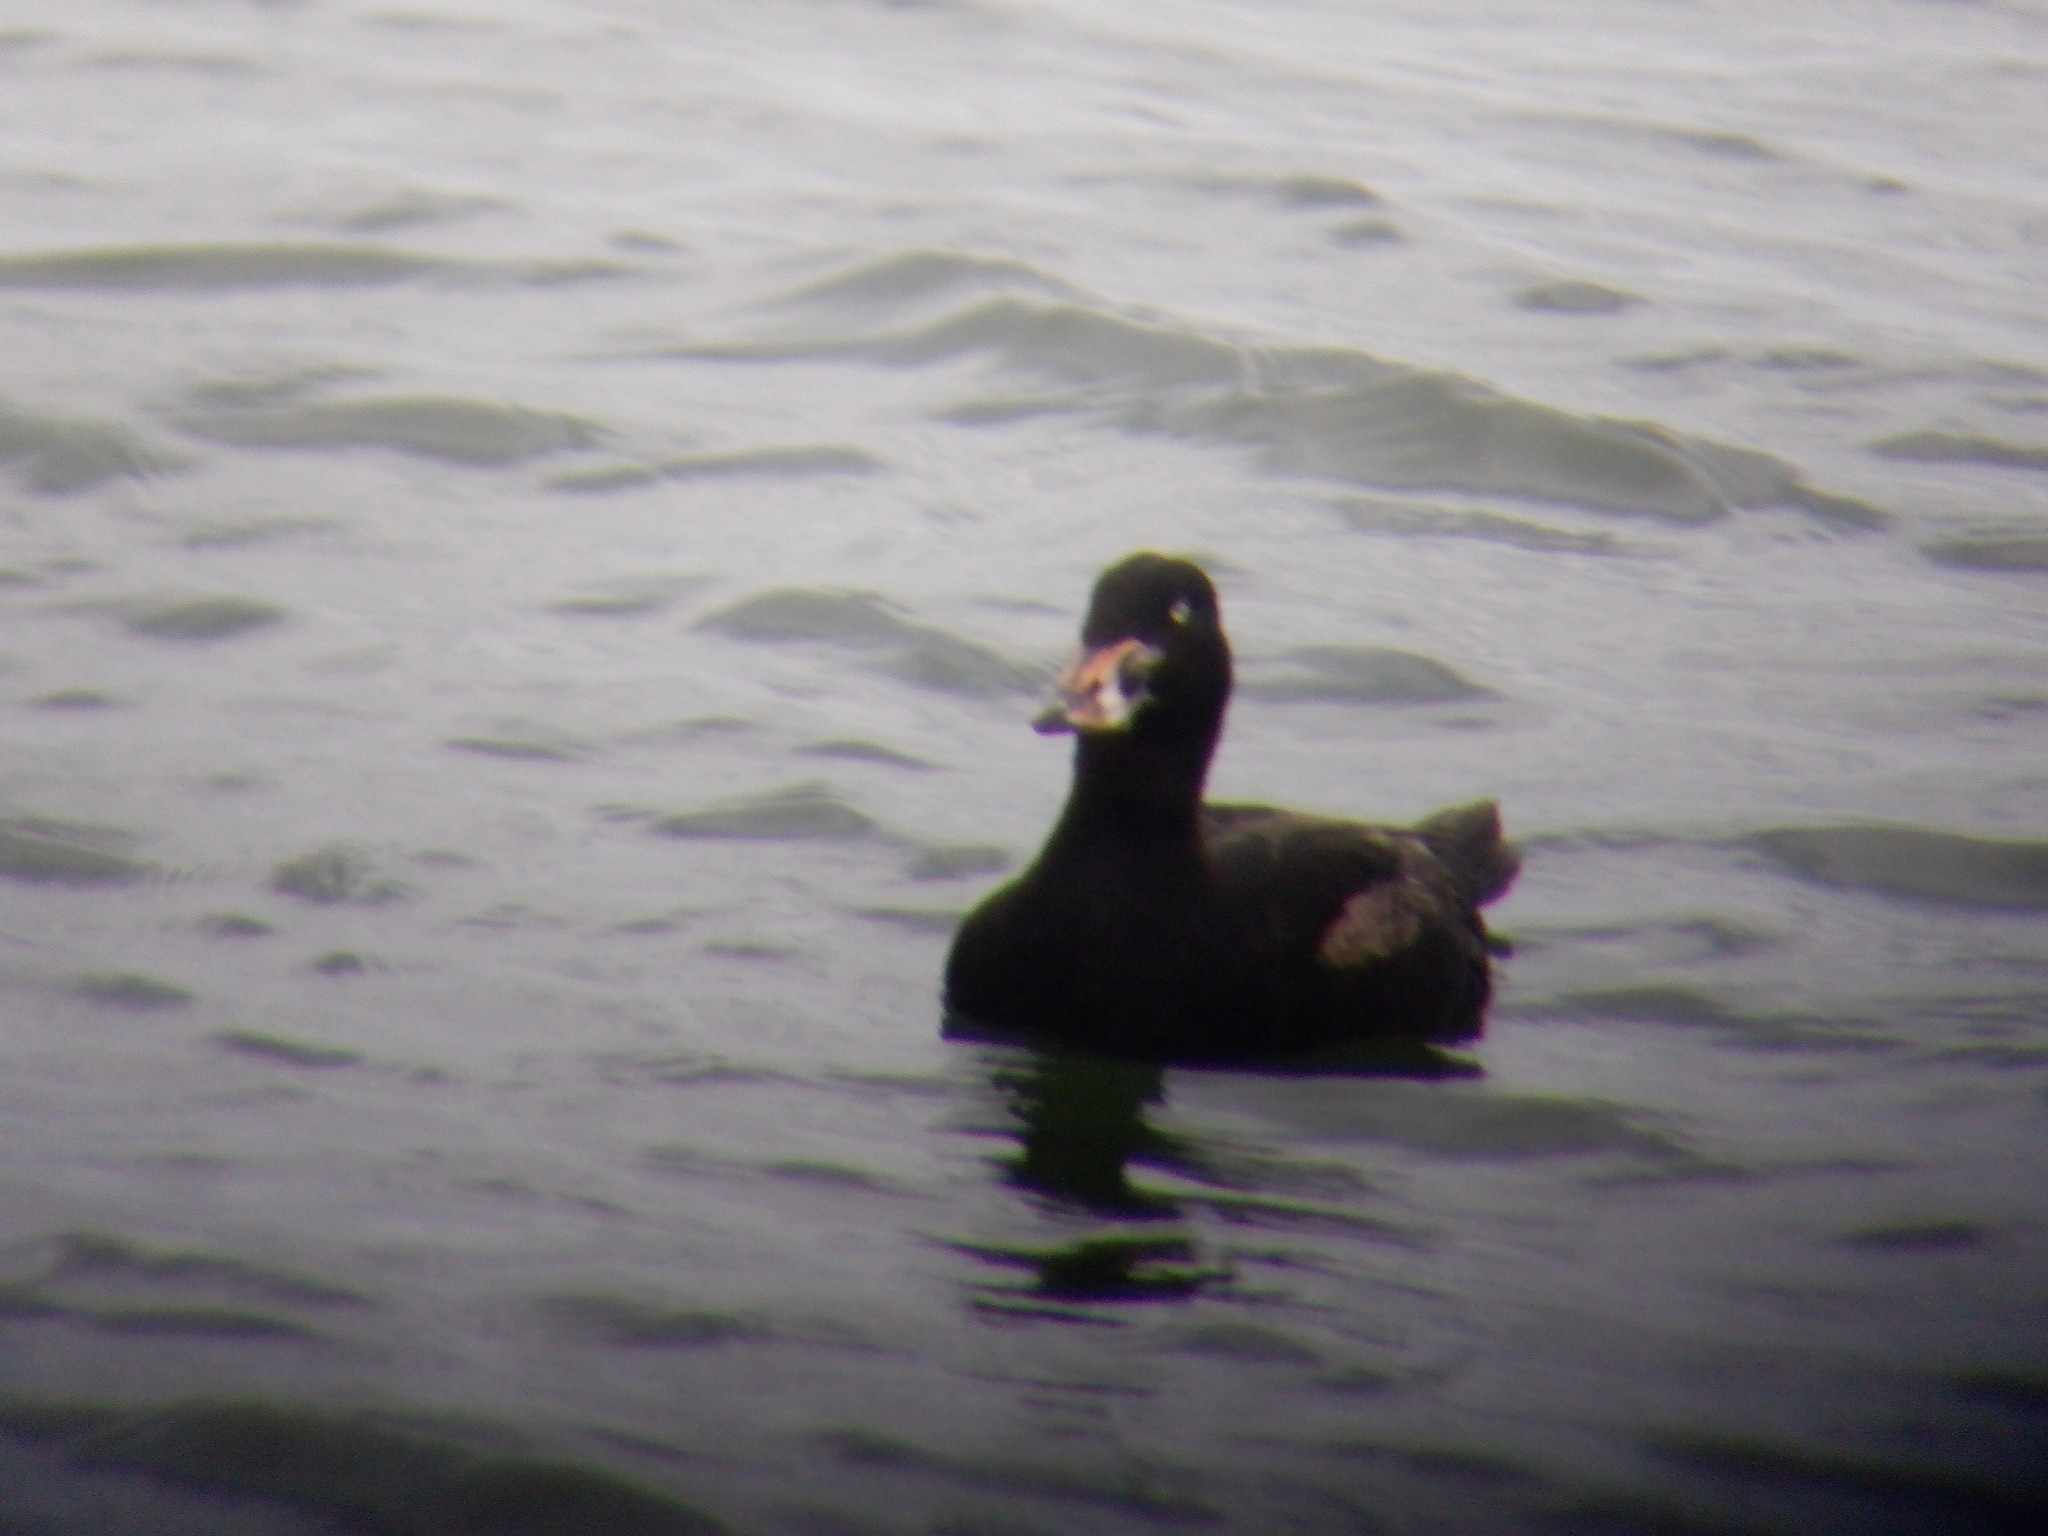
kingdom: Animalia
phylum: Chordata
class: Aves
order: Anseriformes
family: Anatidae
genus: Melanitta
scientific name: Melanitta perspicillata
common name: Surf scoter
